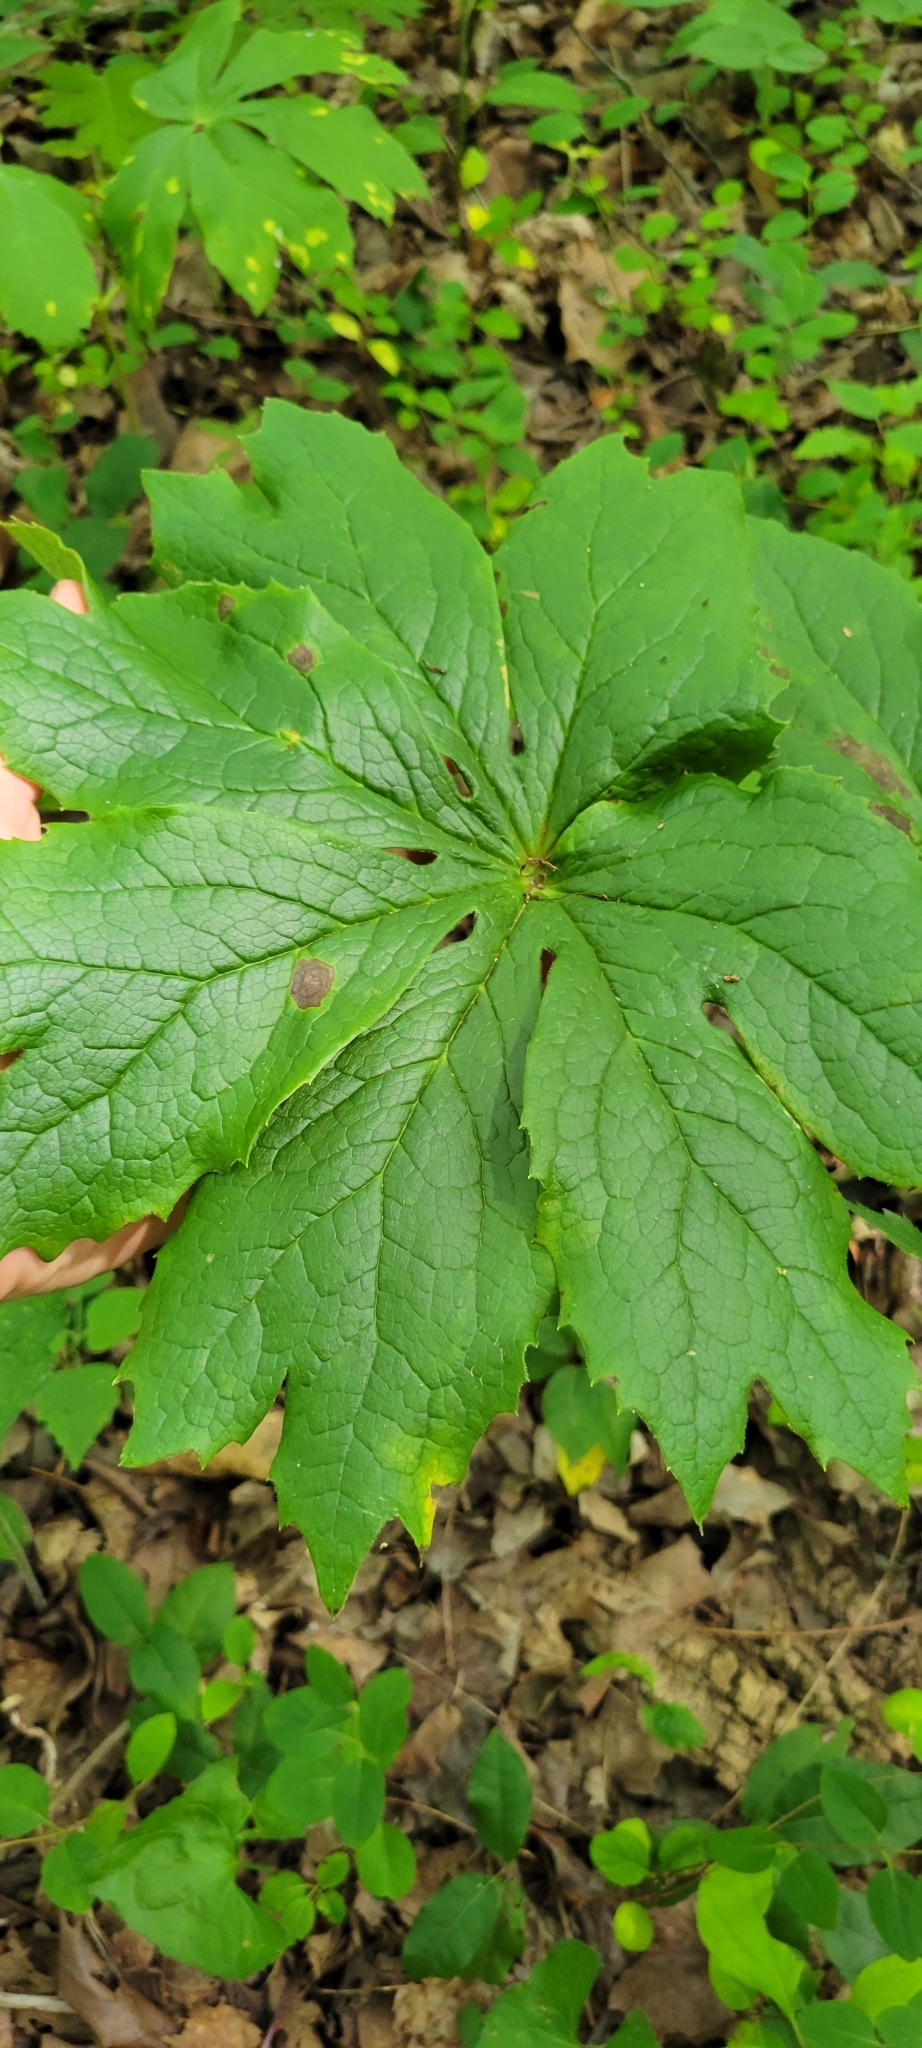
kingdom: Plantae
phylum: Tracheophyta
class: Magnoliopsida
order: Ranunculales
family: Berberidaceae
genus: Podophyllum
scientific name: Podophyllum peltatum
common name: Wild mandrake
